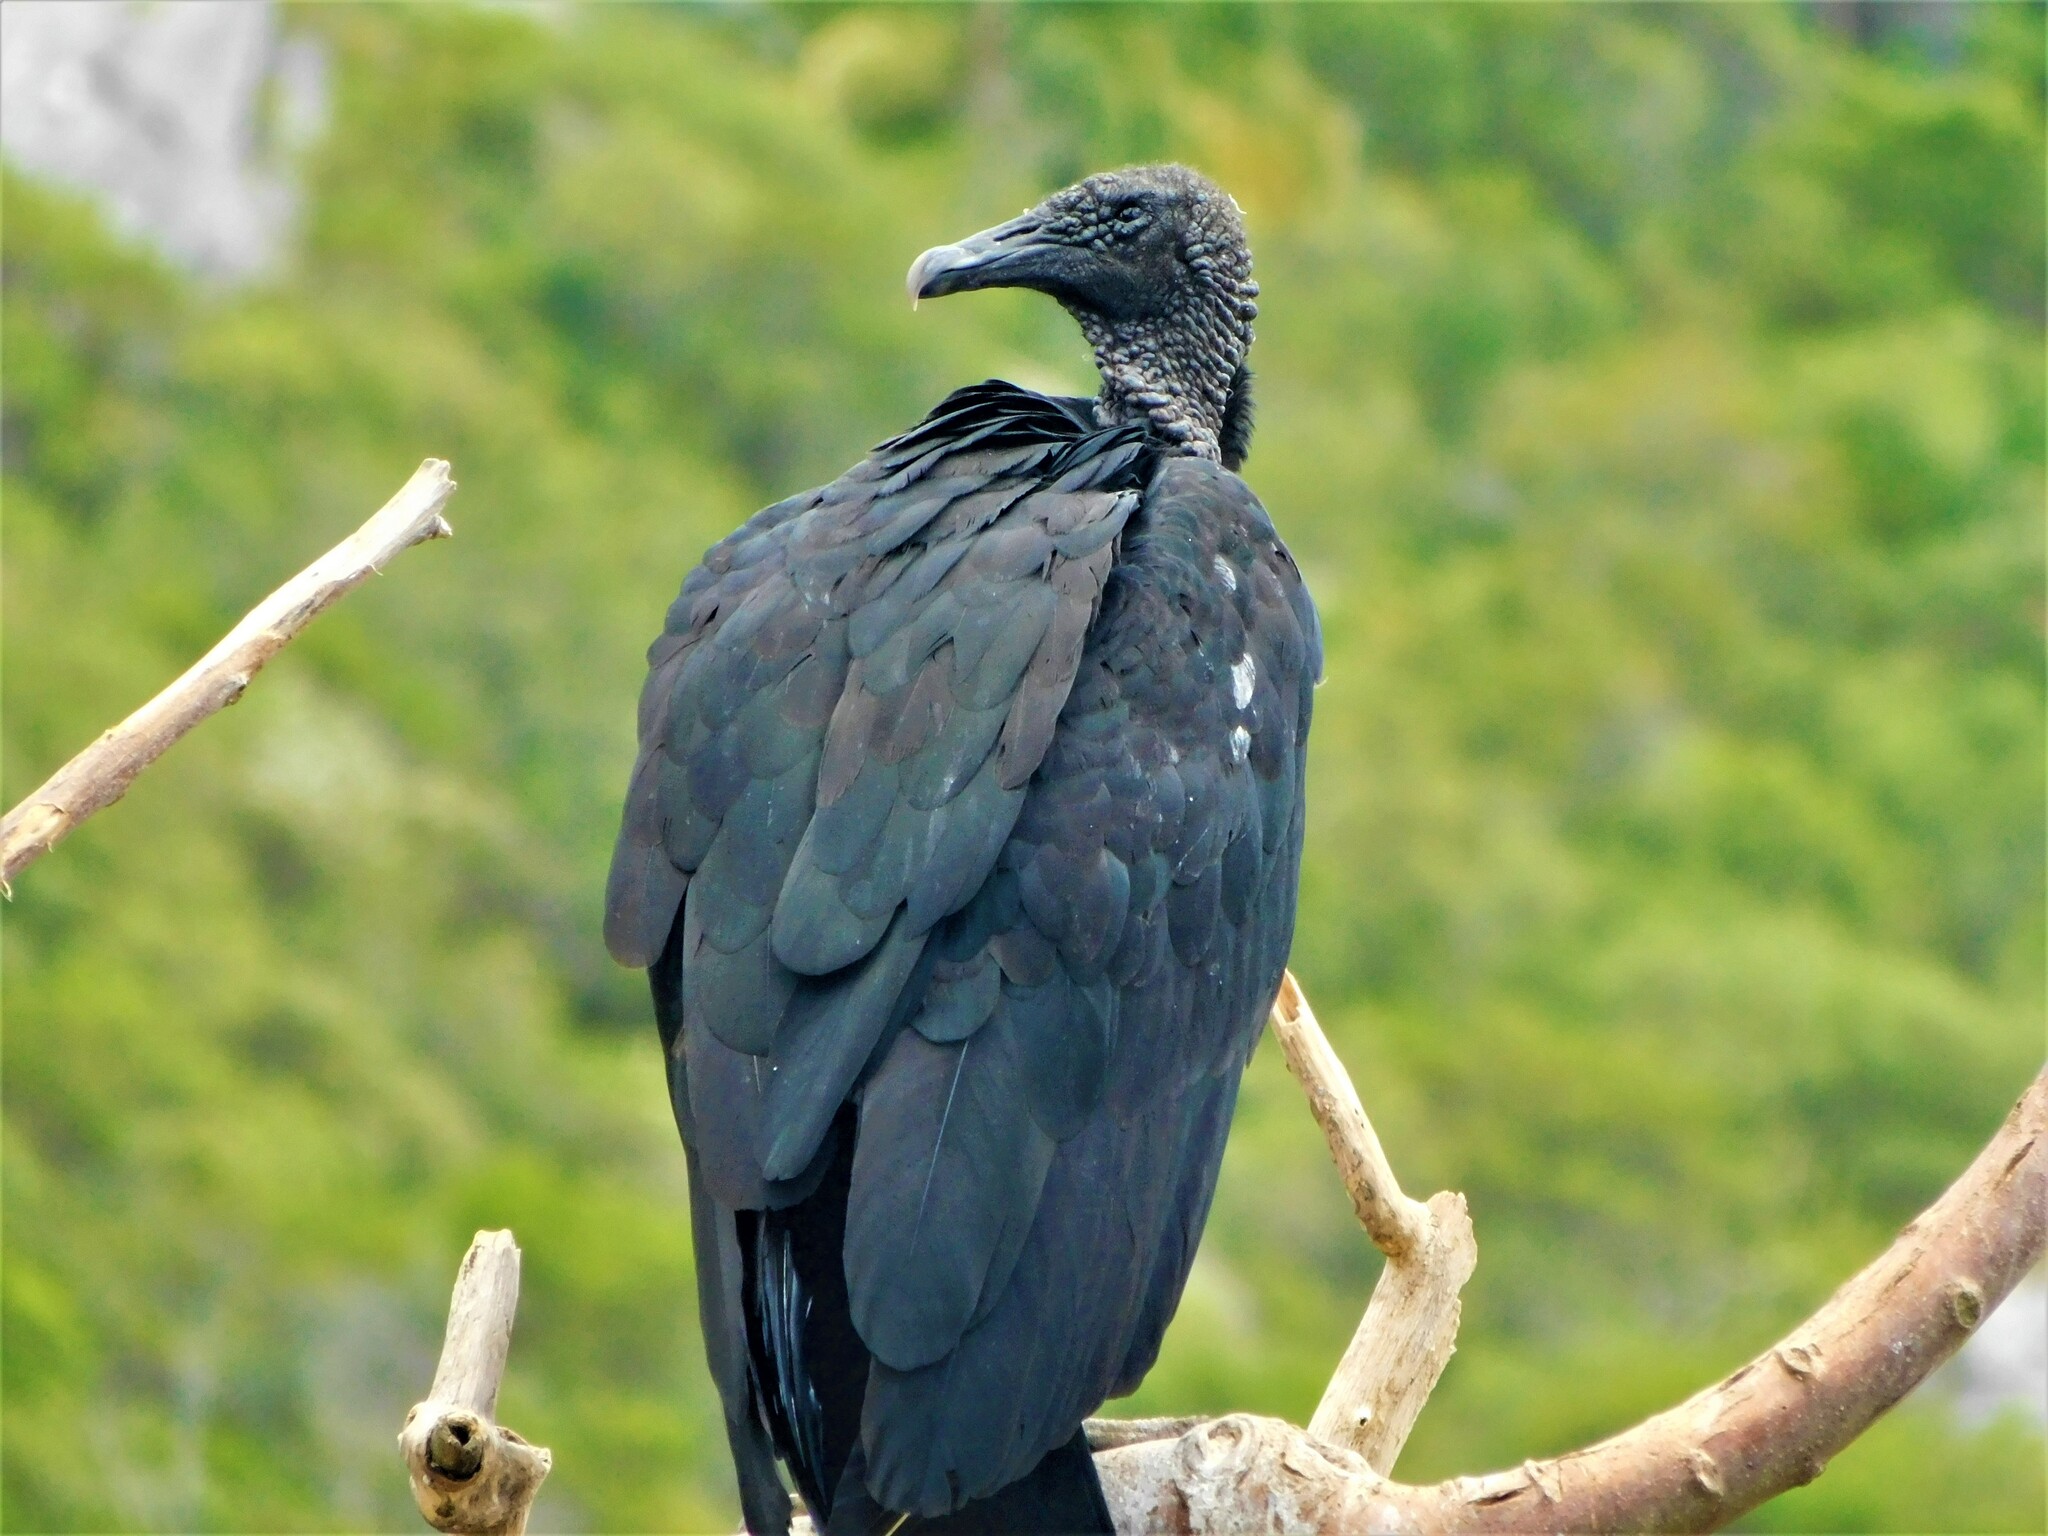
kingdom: Animalia
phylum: Chordata
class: Aves
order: Accipitriformes
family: Cathartidae
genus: Coragyps
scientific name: Coragyps atratus
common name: Black vulture
